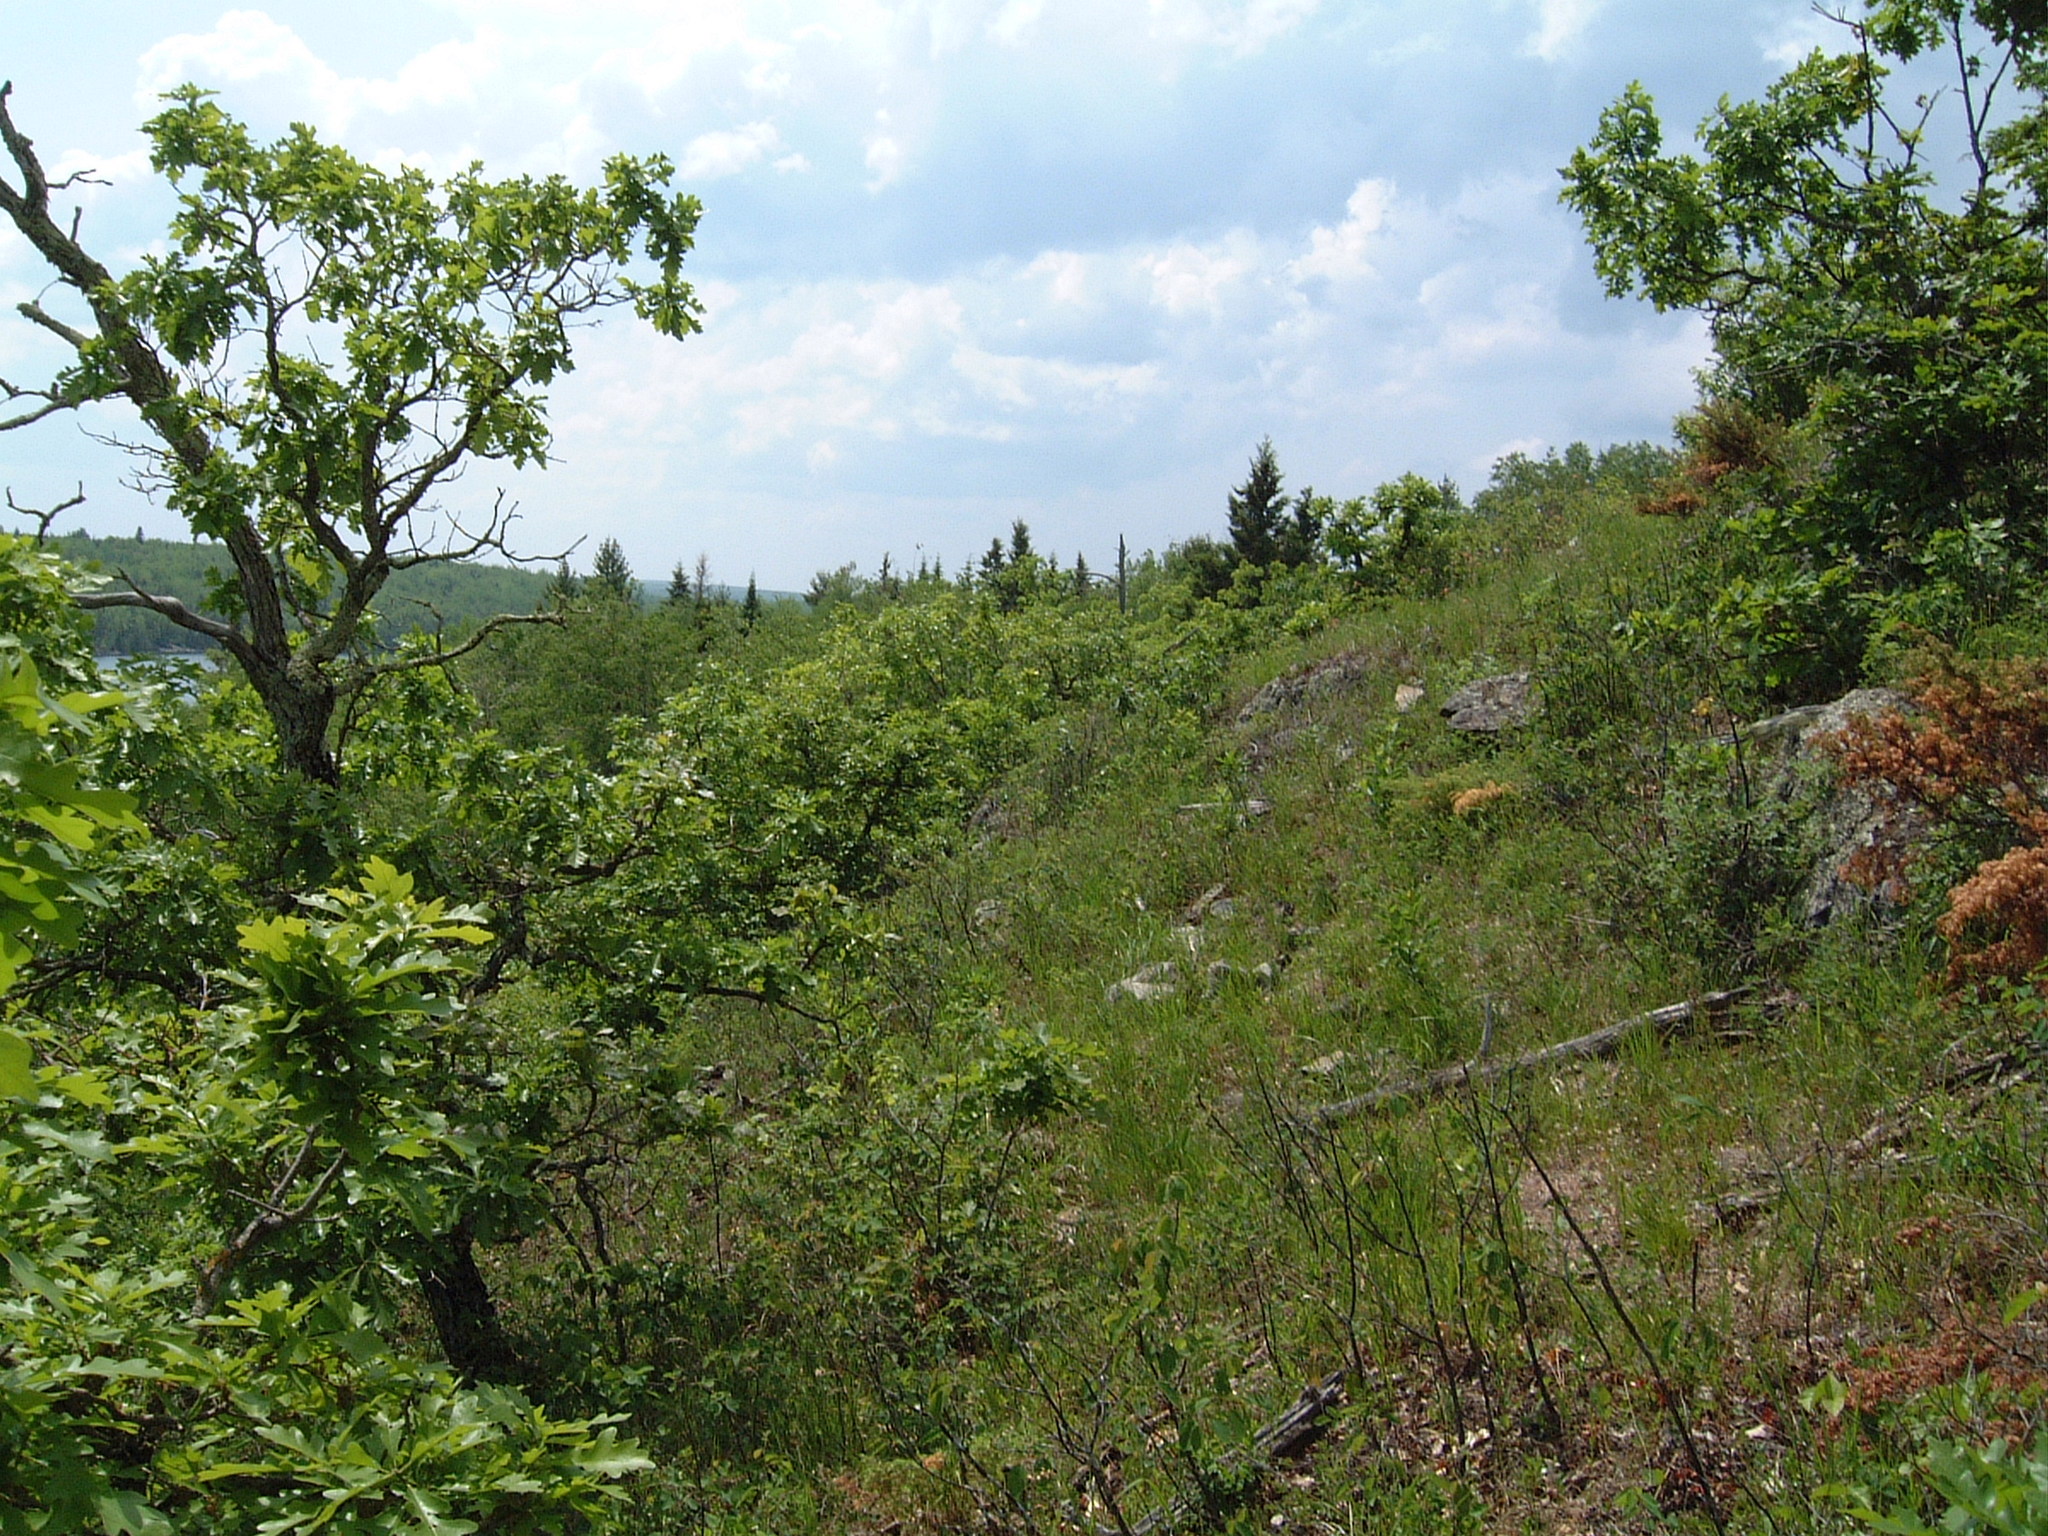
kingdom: Plantae
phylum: Tracheophyta
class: Magnoliopsida
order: Fagales
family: Fagaceae
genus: Quercus
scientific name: Quercus macrocarpa
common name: Bur oak
